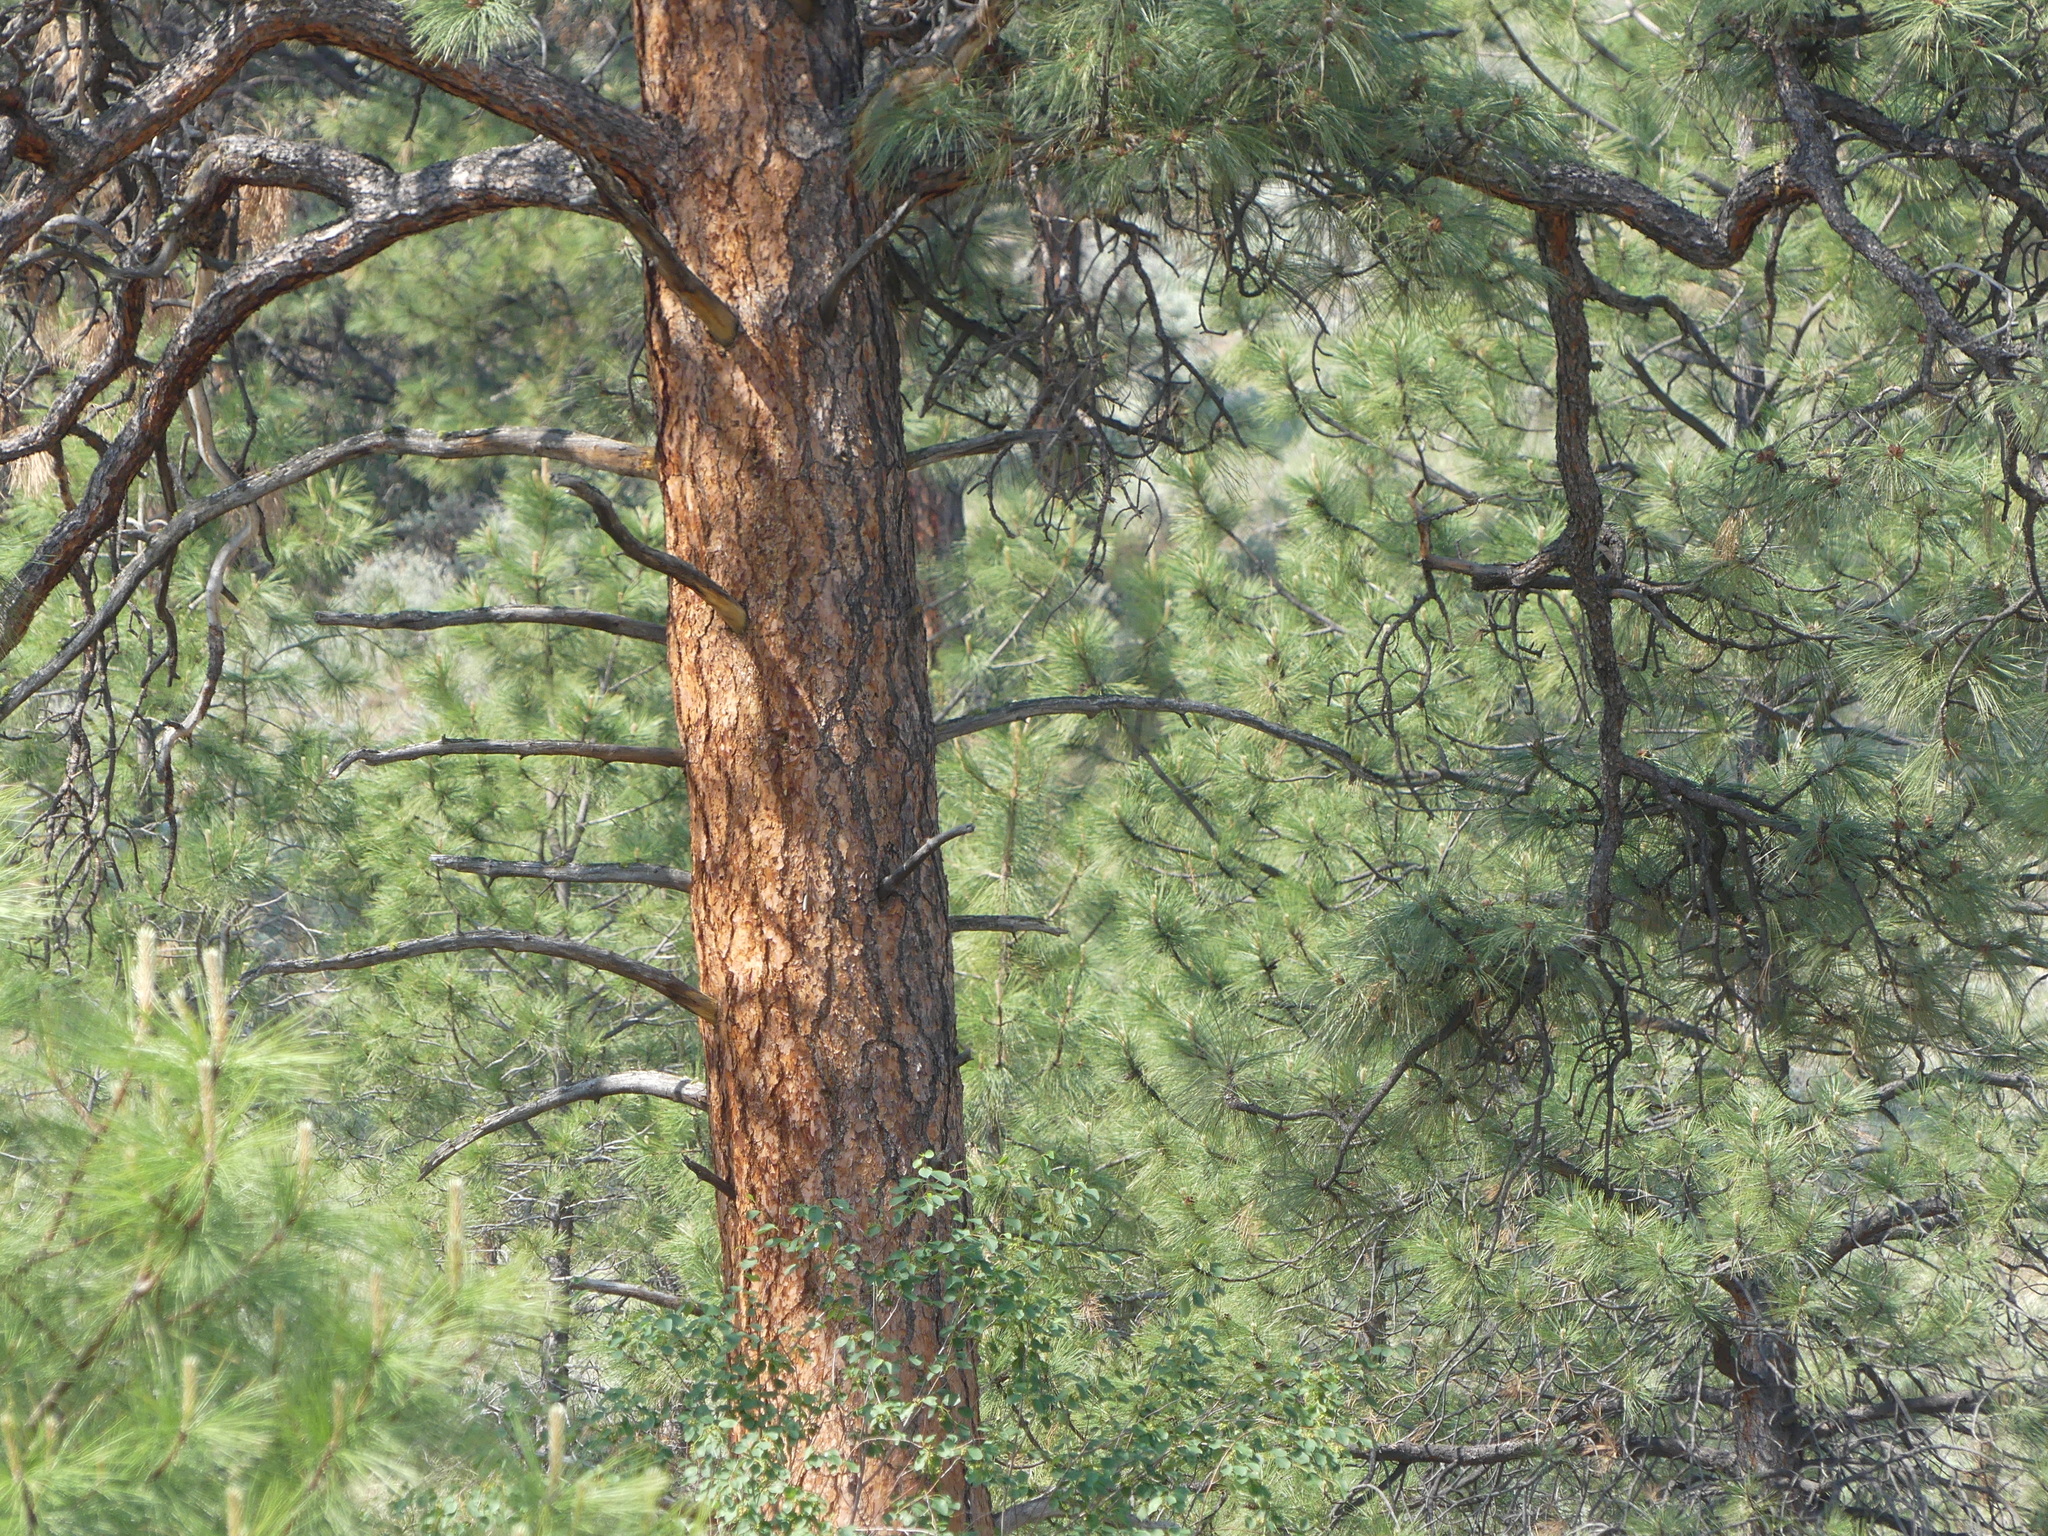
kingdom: Plantae
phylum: Tracheophyta
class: Pinopsida
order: Pinales
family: Pinaceae
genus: Pinus
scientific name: Pinus ponderosa
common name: Western yellow-pine
